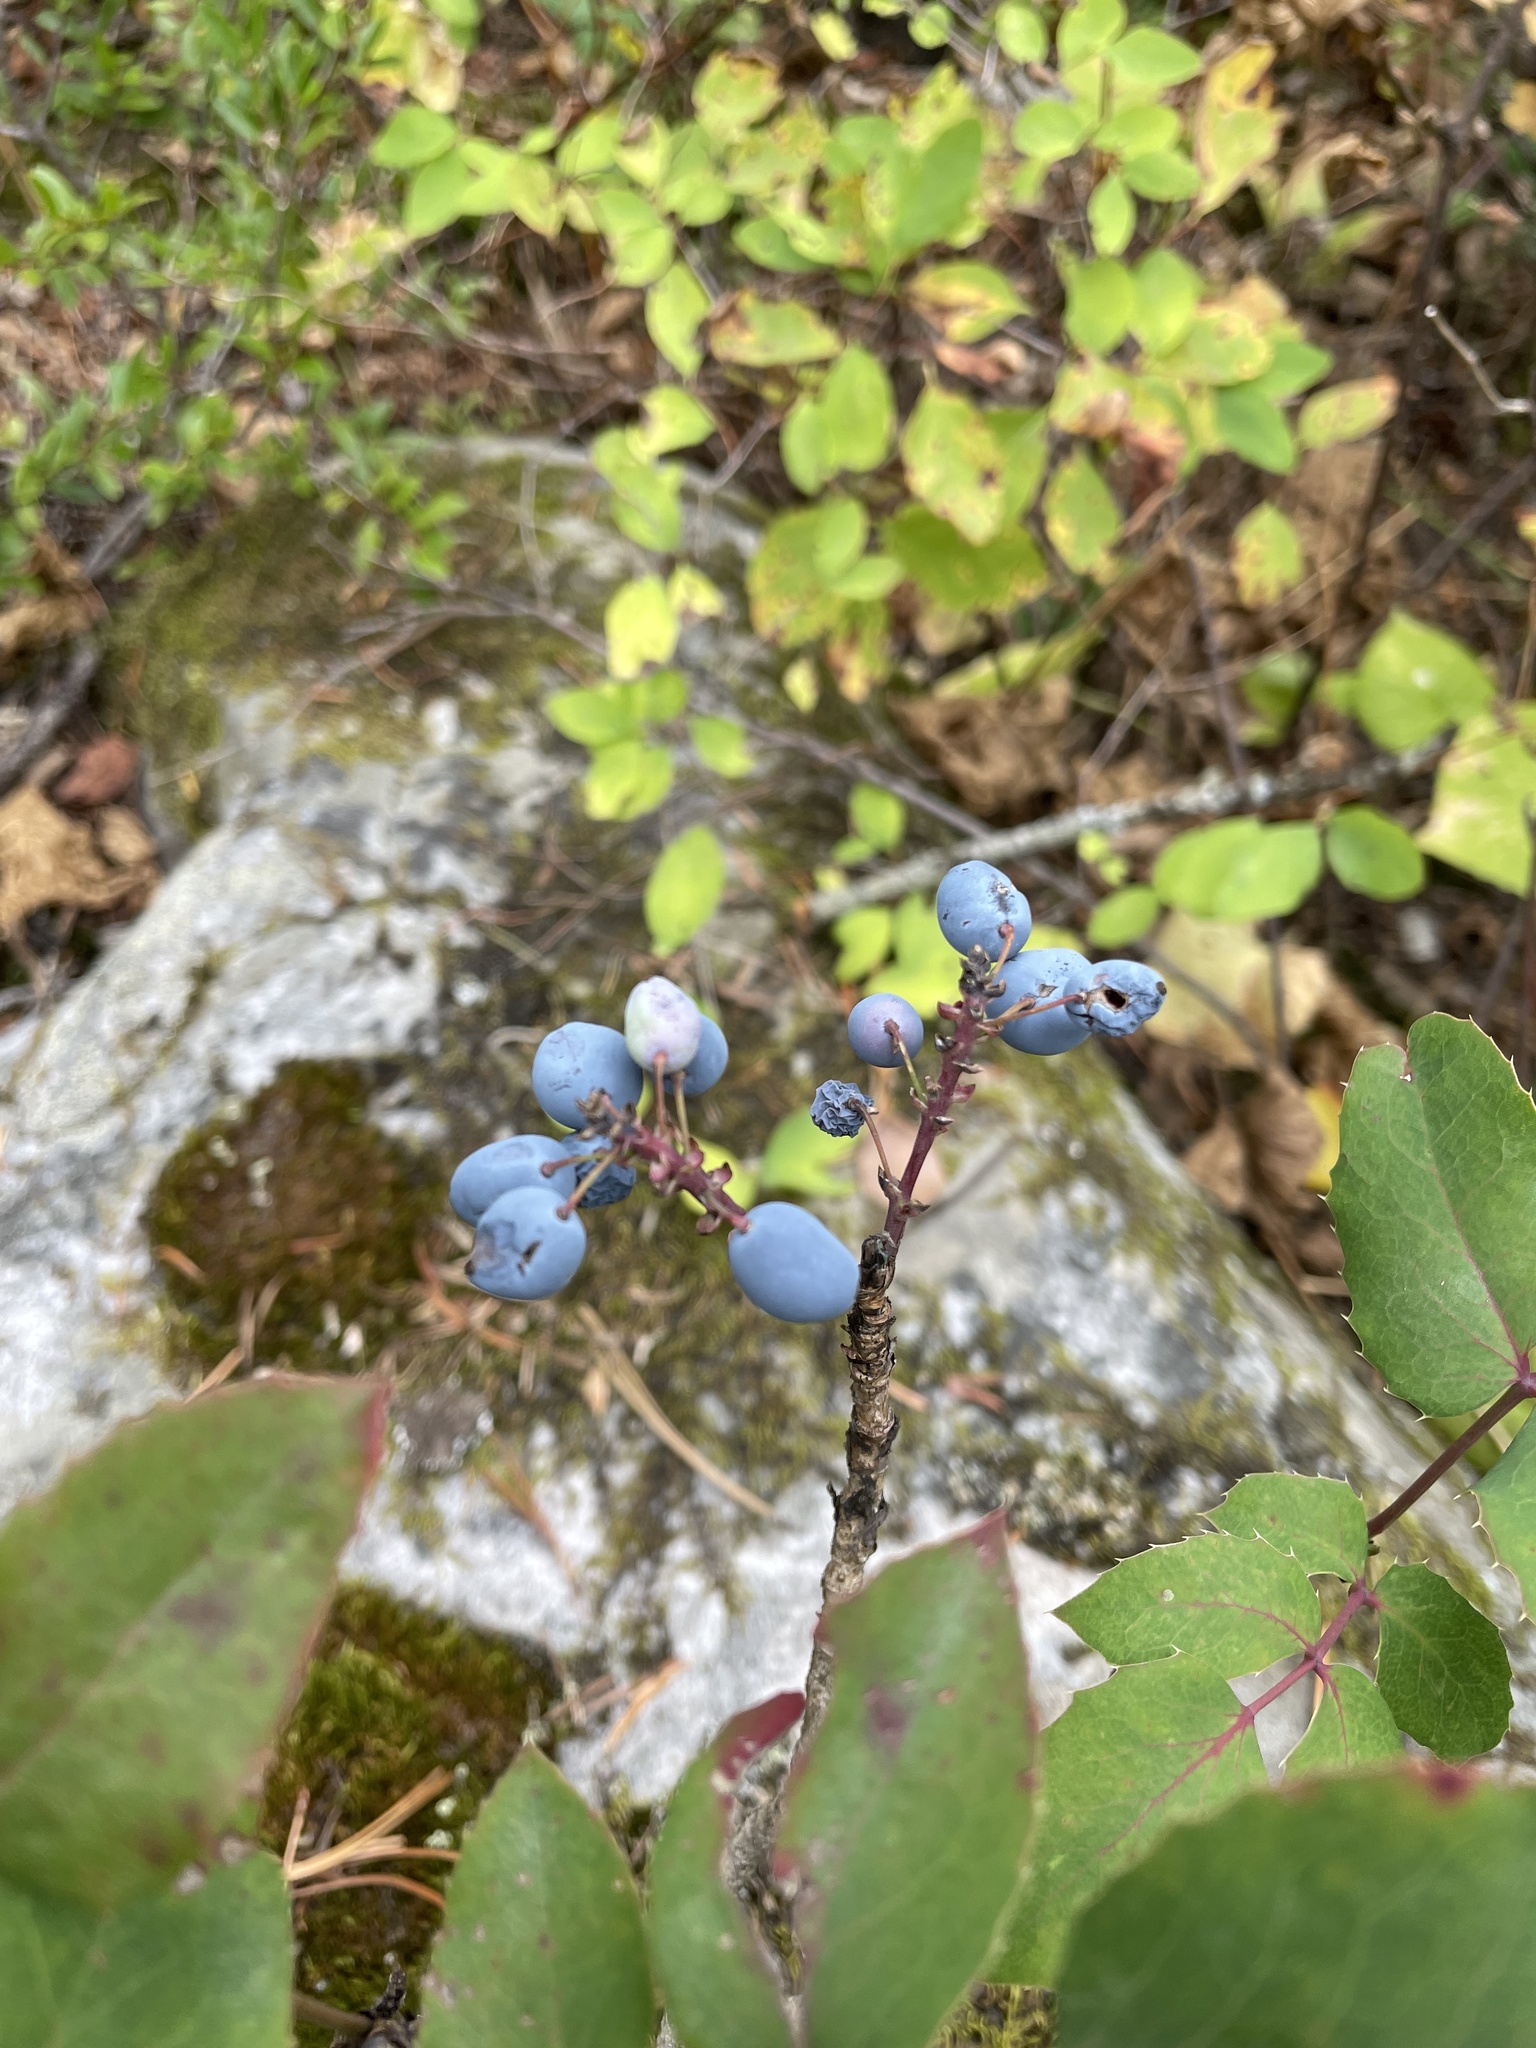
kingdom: Plantae
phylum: Tracheophyta
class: Magnoliopsida
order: Ranunculales
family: Berberidaceae
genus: Mahonia
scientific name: Mahonia repens
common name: Creeping oregon-grape
